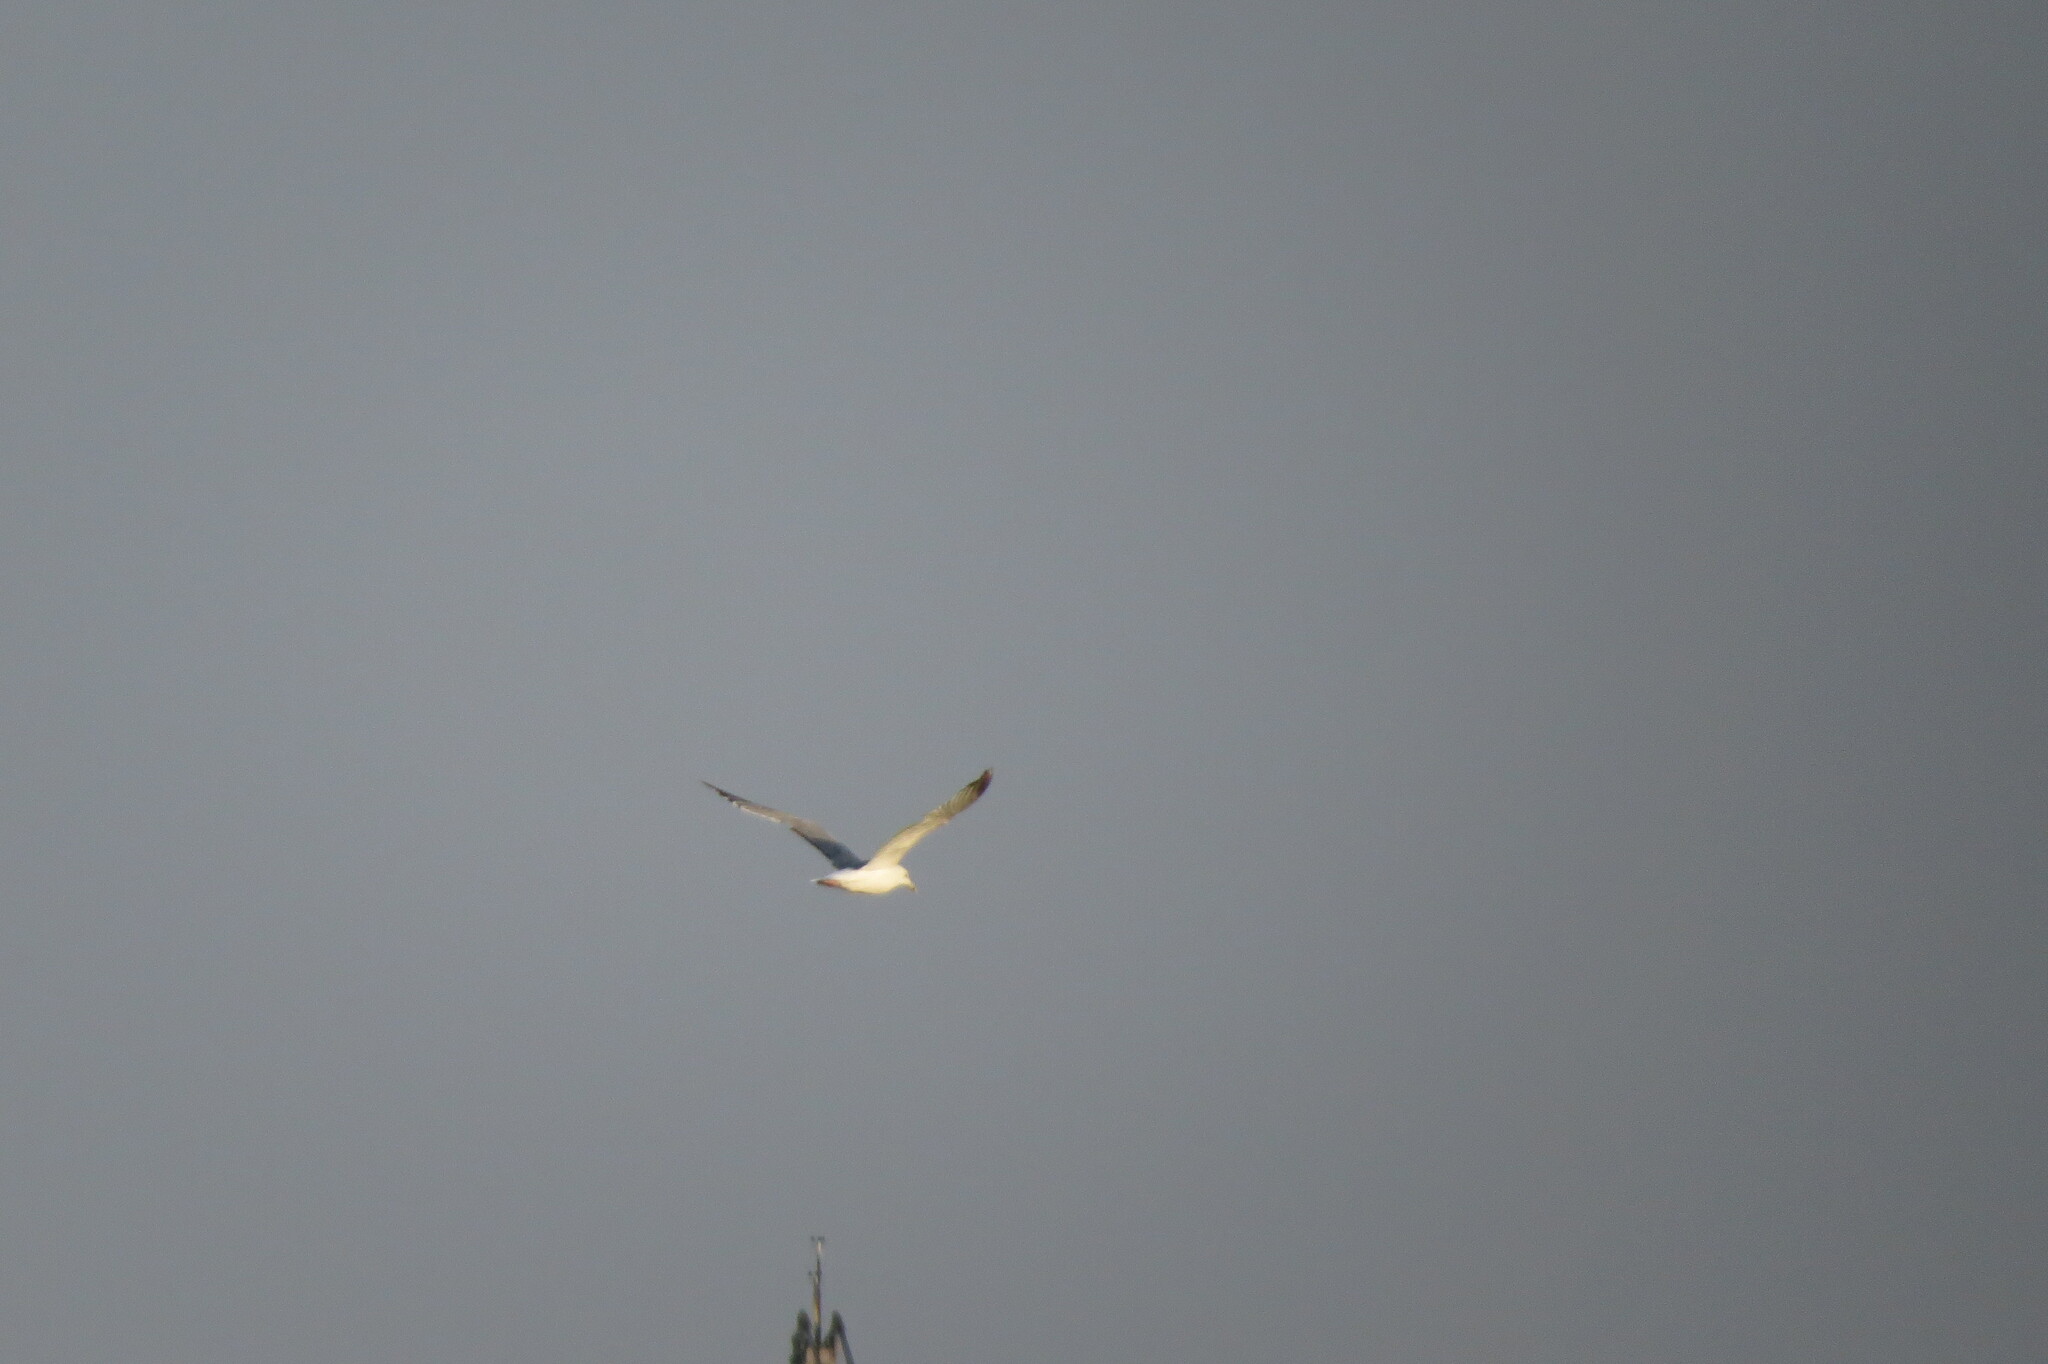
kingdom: Animalia
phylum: Chordata
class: Aves
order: Charadriiformes
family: Laridae
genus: Larus
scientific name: Larus fuscus
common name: Lesser black-backed gull
